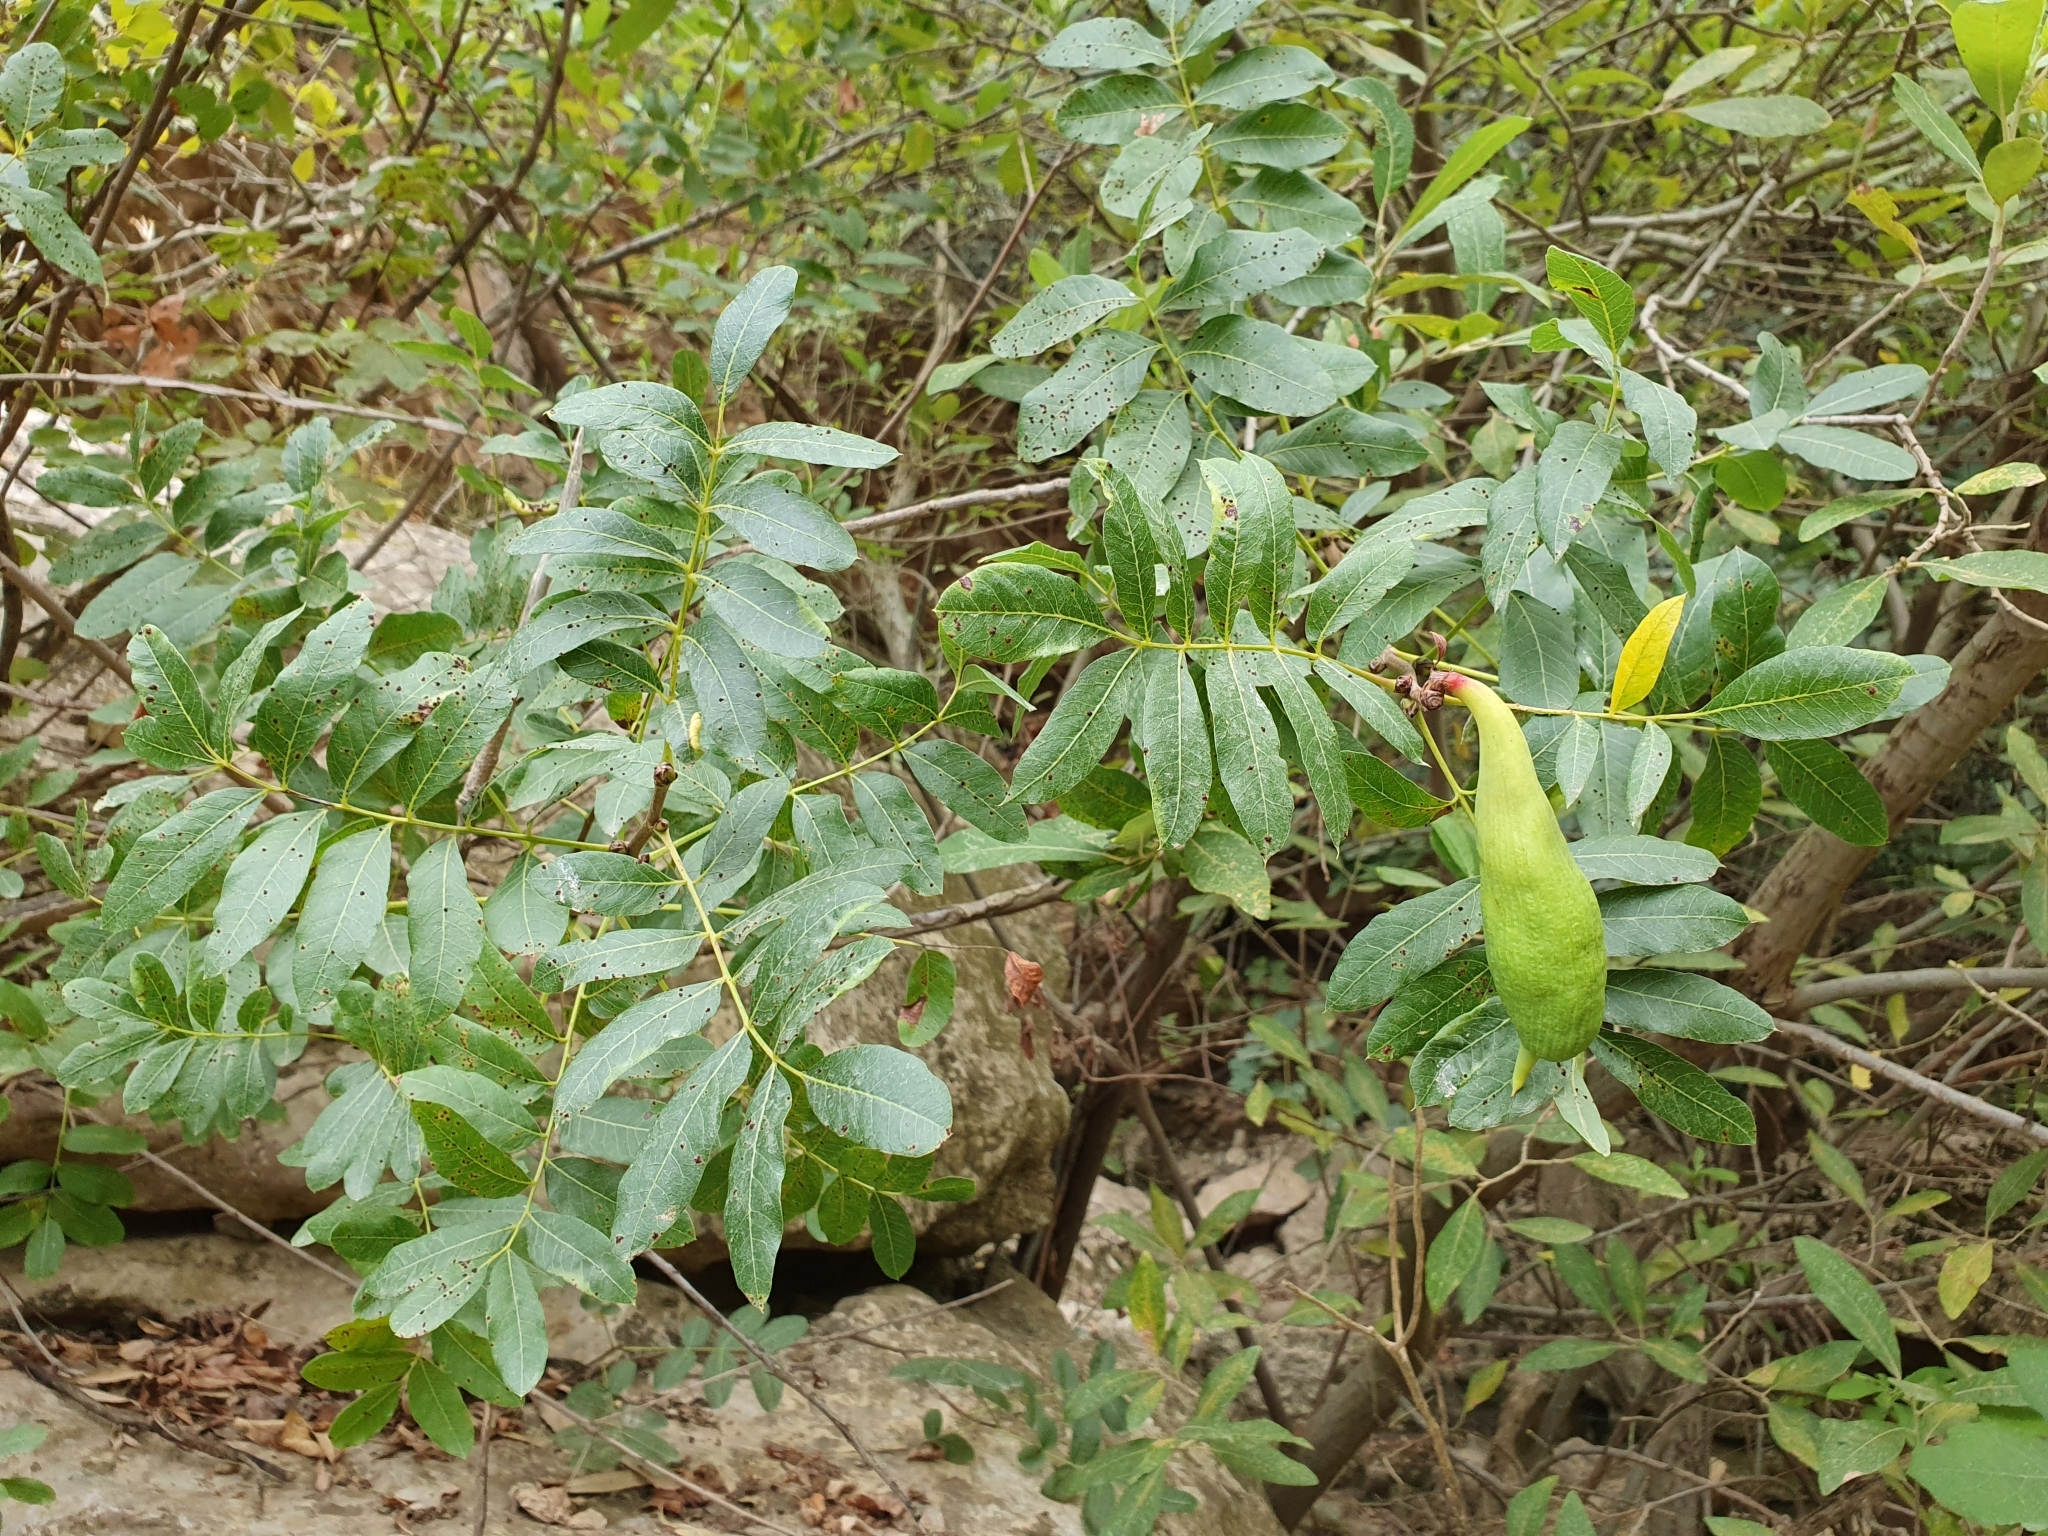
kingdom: Plantae
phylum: Tracheophyta
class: Magnoliopsida
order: Sapindales
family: Anacardiaceae
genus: Pistacia
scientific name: Pistacia terebinthus
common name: Terebinth
